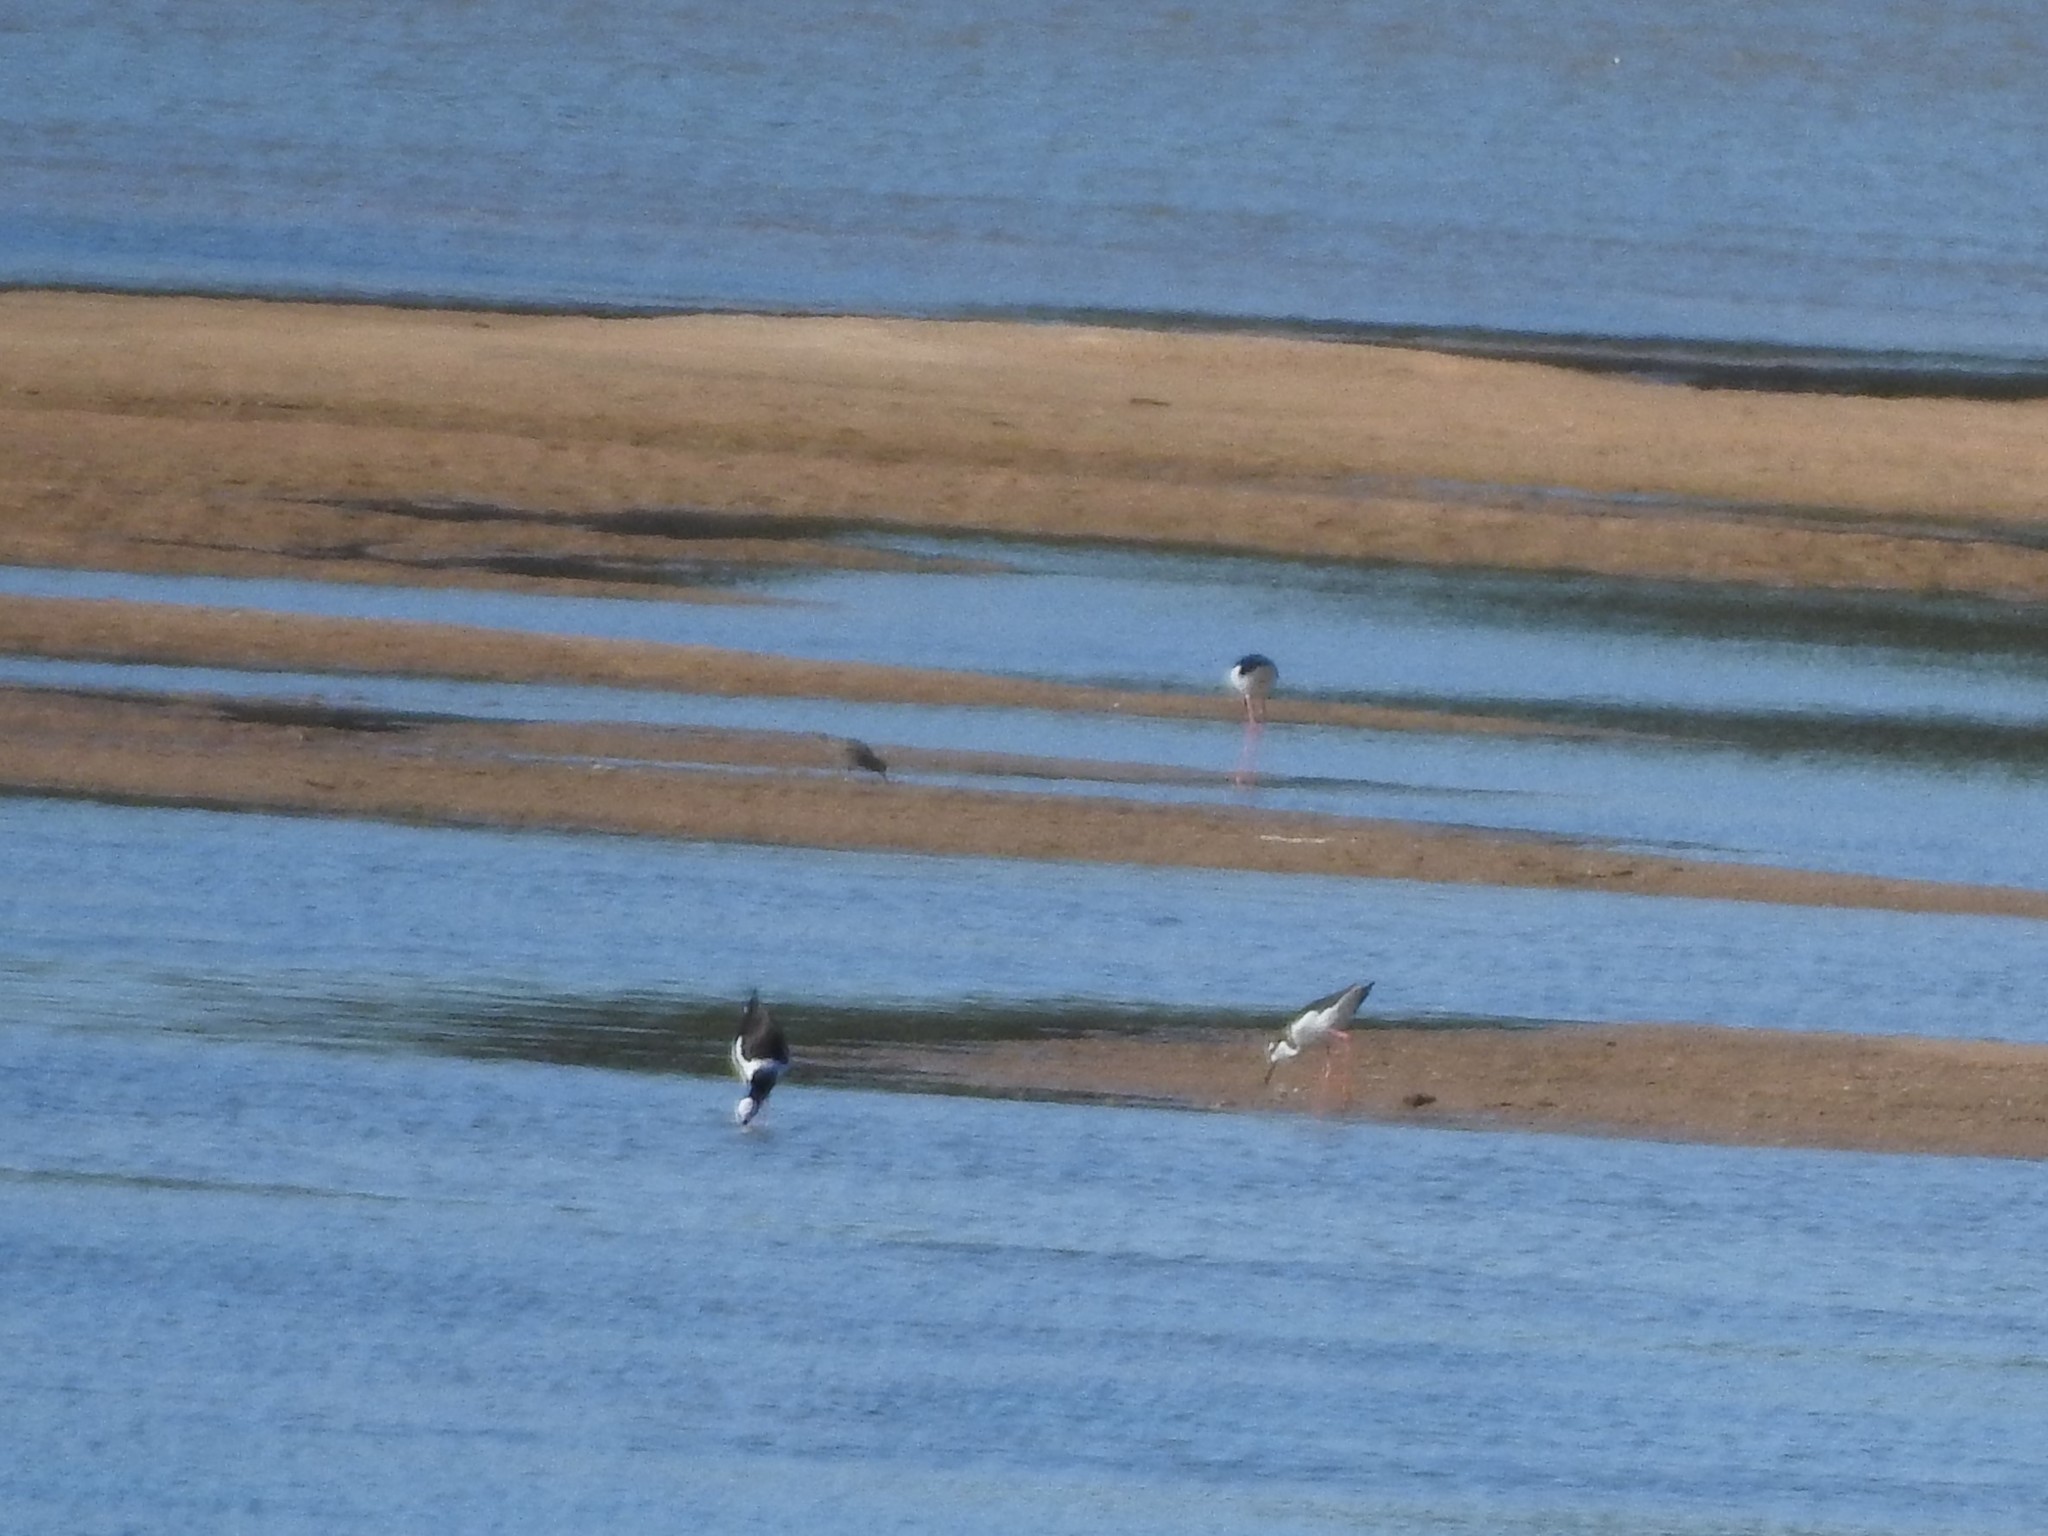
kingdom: Animalia
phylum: Chordata
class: Aves
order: Charadriiformes
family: Recurvirostridae
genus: Himantopus
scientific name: Himantopus mexicanus
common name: Black-necked stilt
